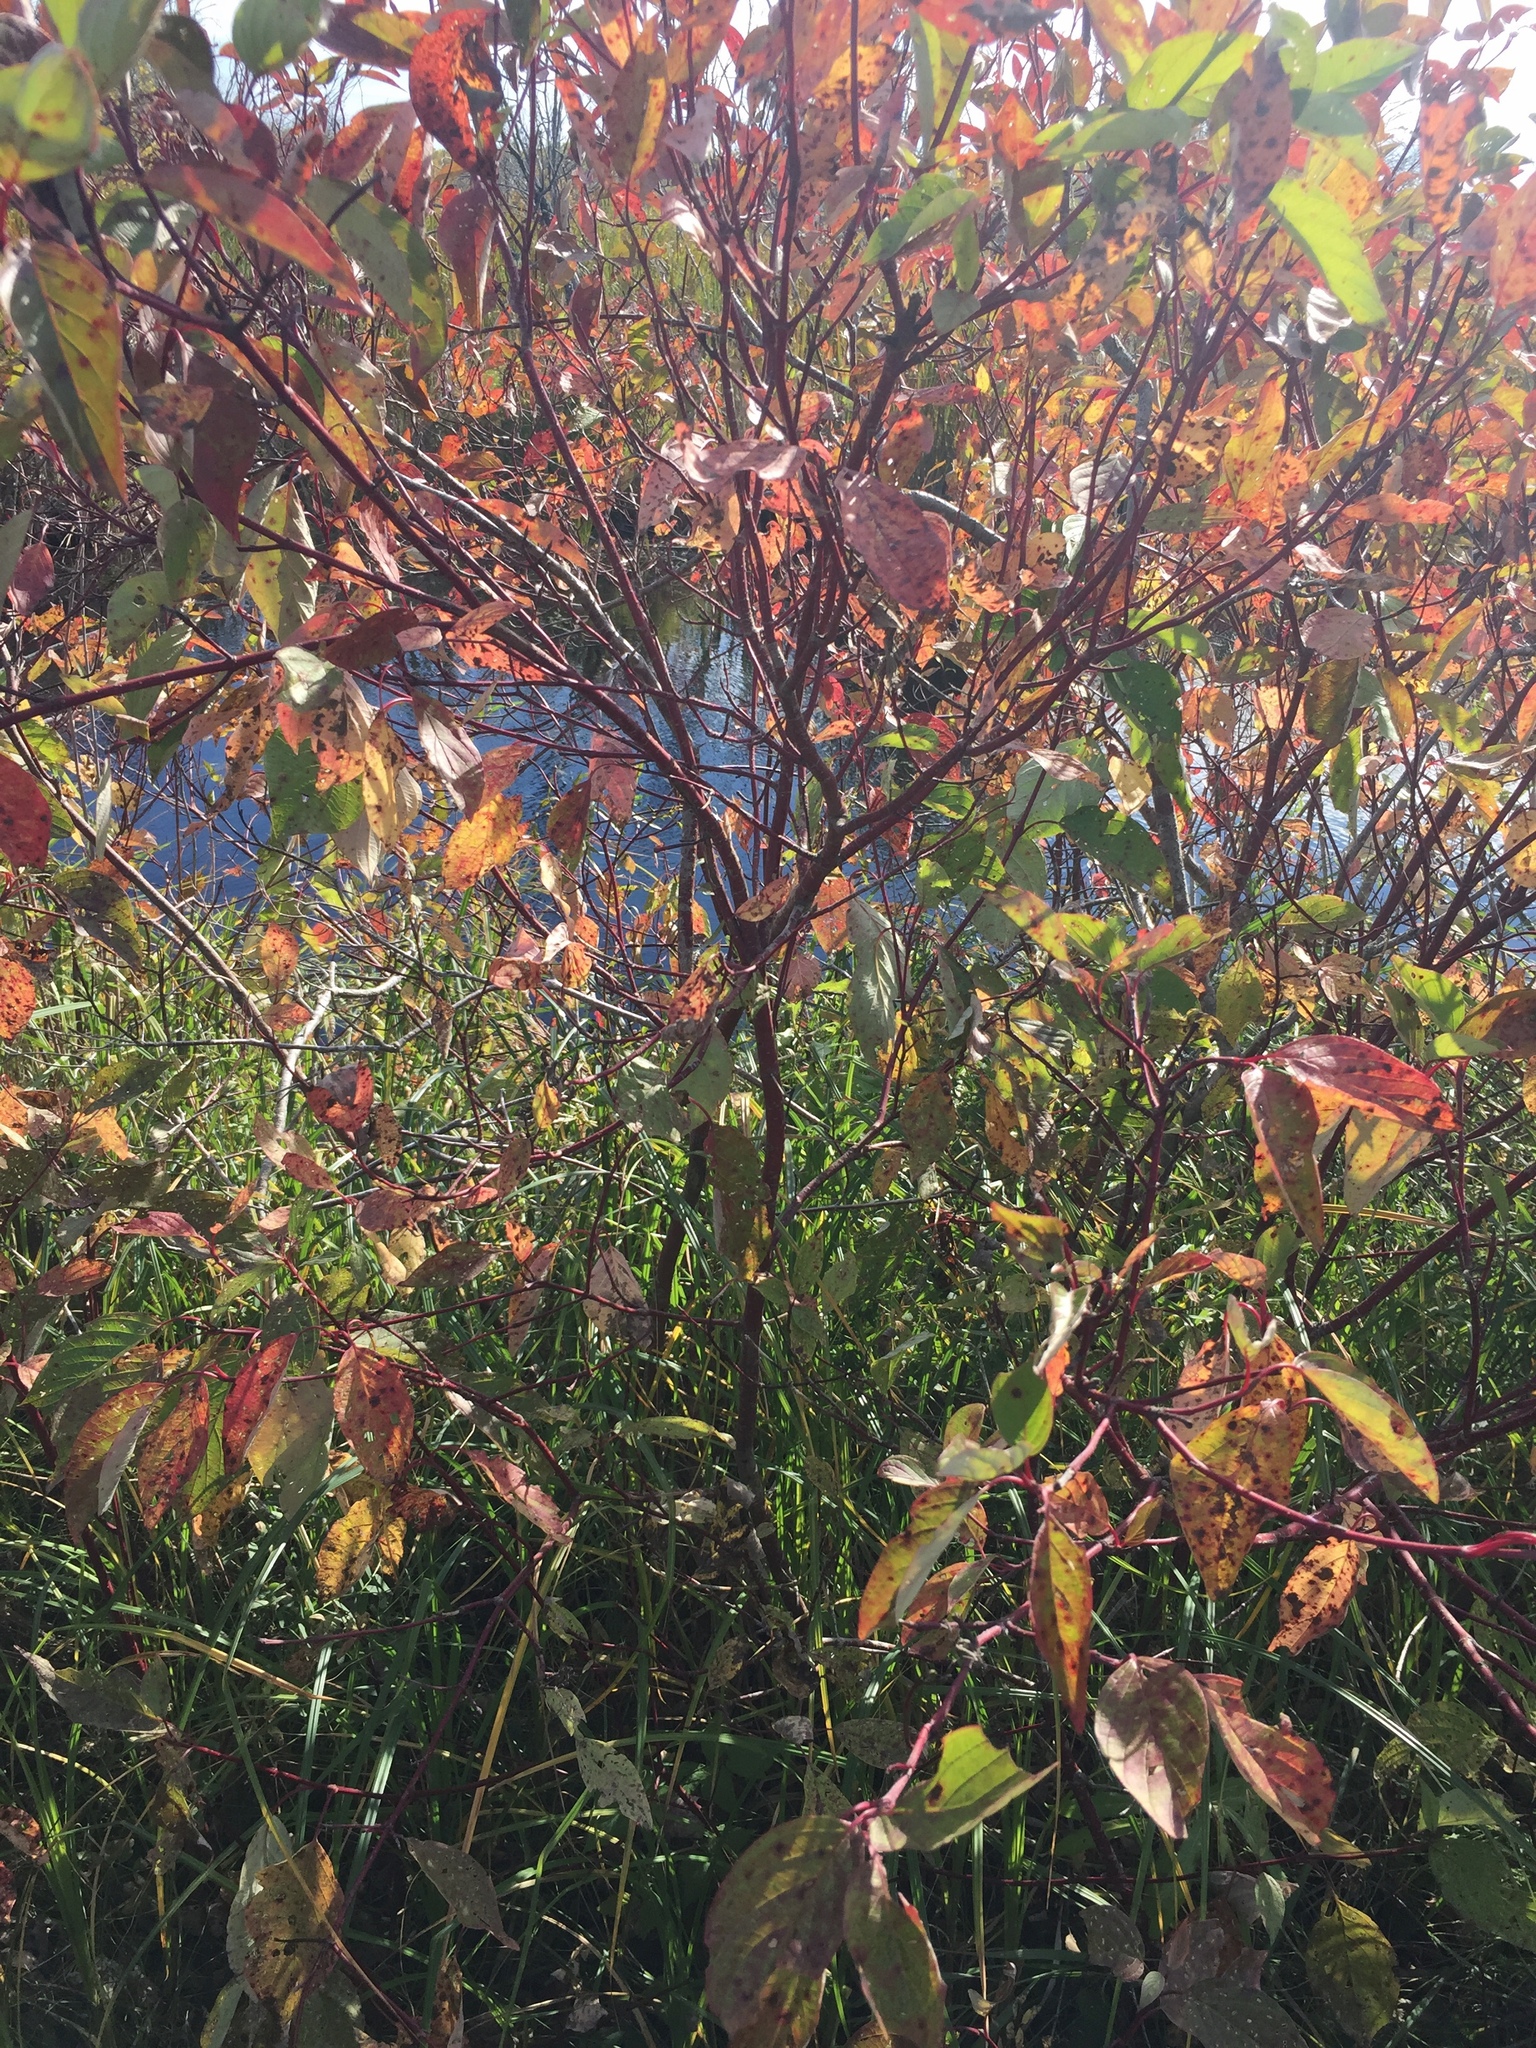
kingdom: Plantae
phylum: Tracheophyta
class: Magnoliopsida
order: Cornales
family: Cornaceae
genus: Cornus
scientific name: Cornus sericea
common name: Red-osier dogwood
